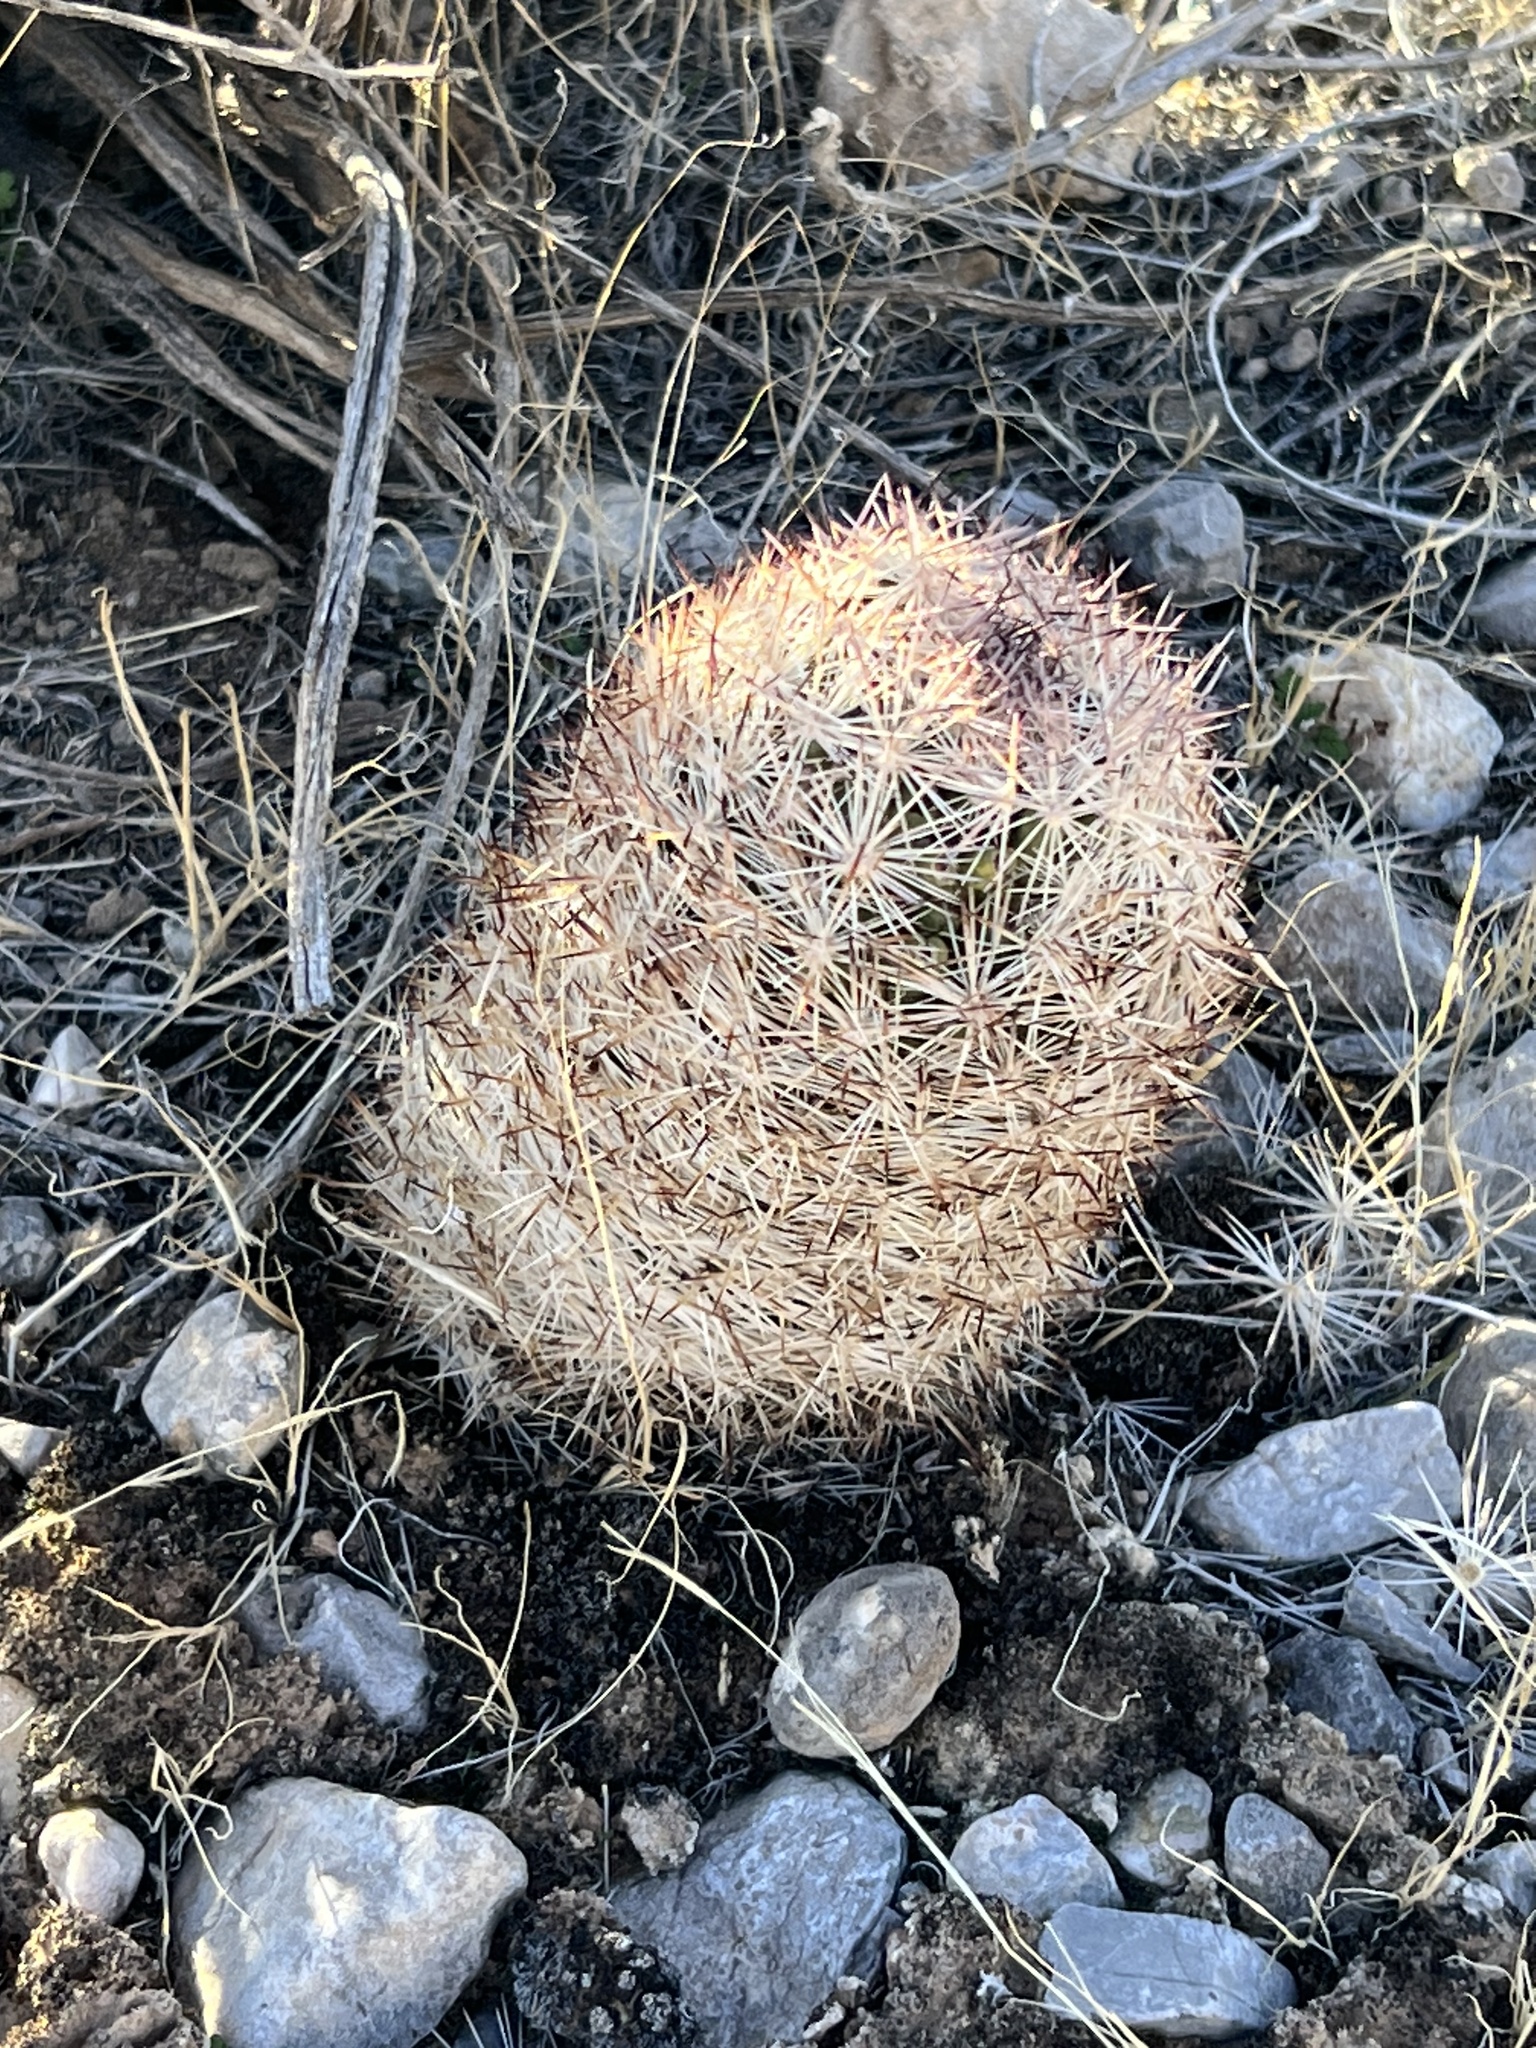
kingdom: Plantae
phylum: Tracheophyta
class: Magnoliopsida
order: Caryophyllales
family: Cactaceae
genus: Pelecyphora
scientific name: Pelecyphora dasyacantha
